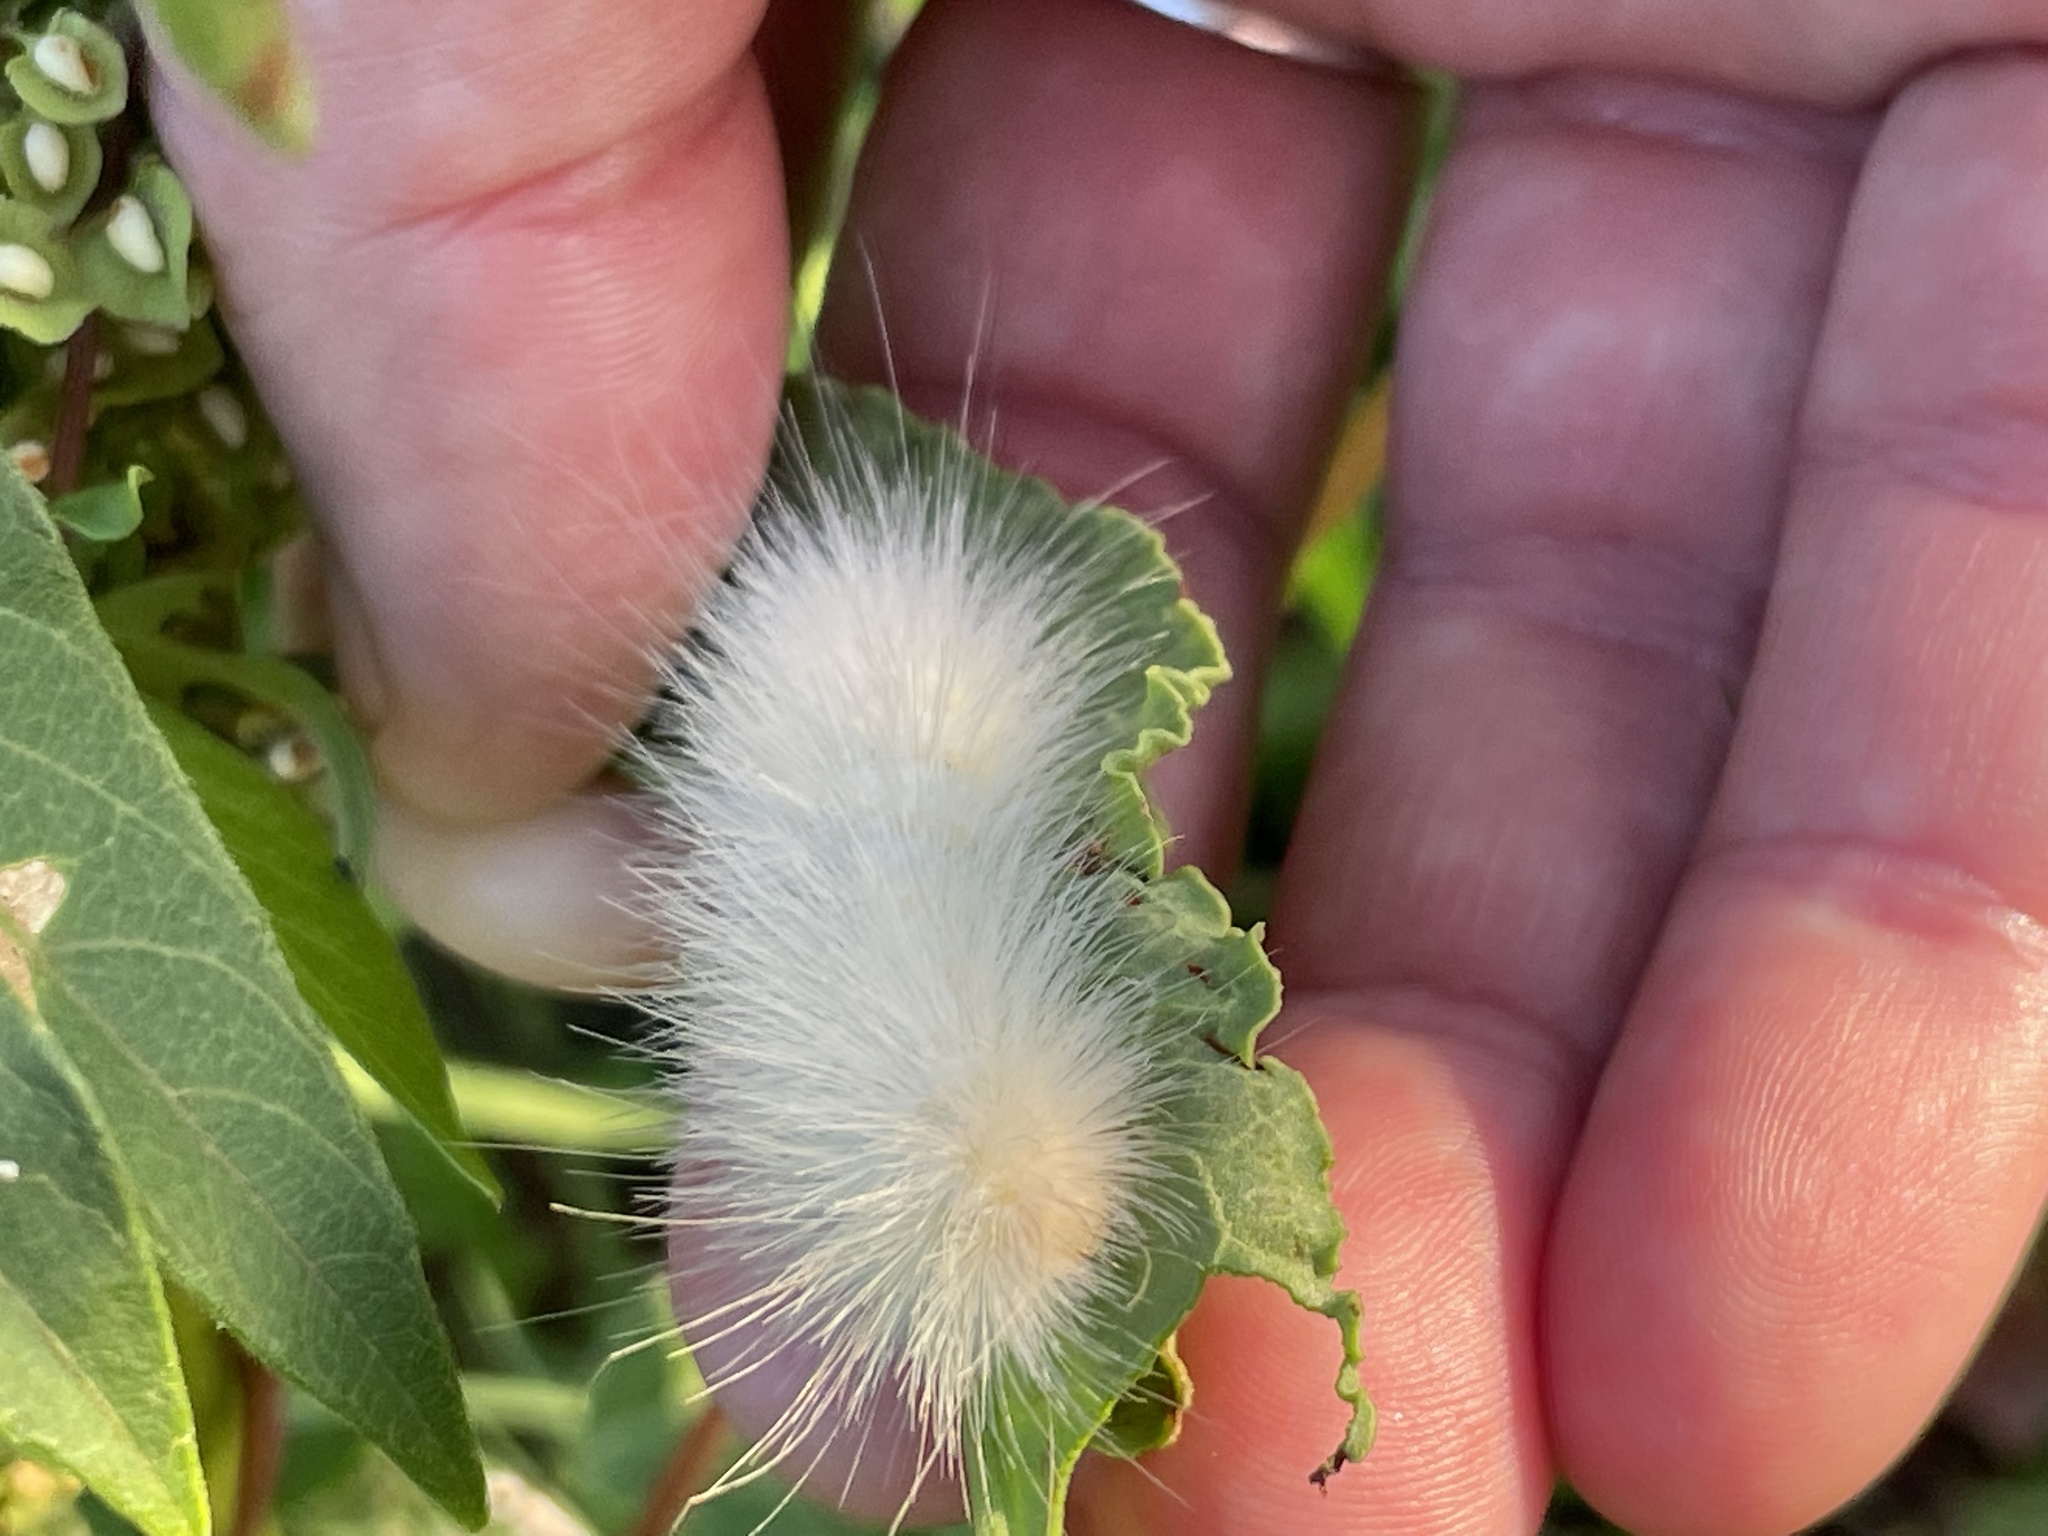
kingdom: Animalia
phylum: Arthropoda
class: Insecta
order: Lepidoptera
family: Erebidae
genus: Spilosoma
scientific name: Spilosoma virginica
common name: Virginia tiger moth
